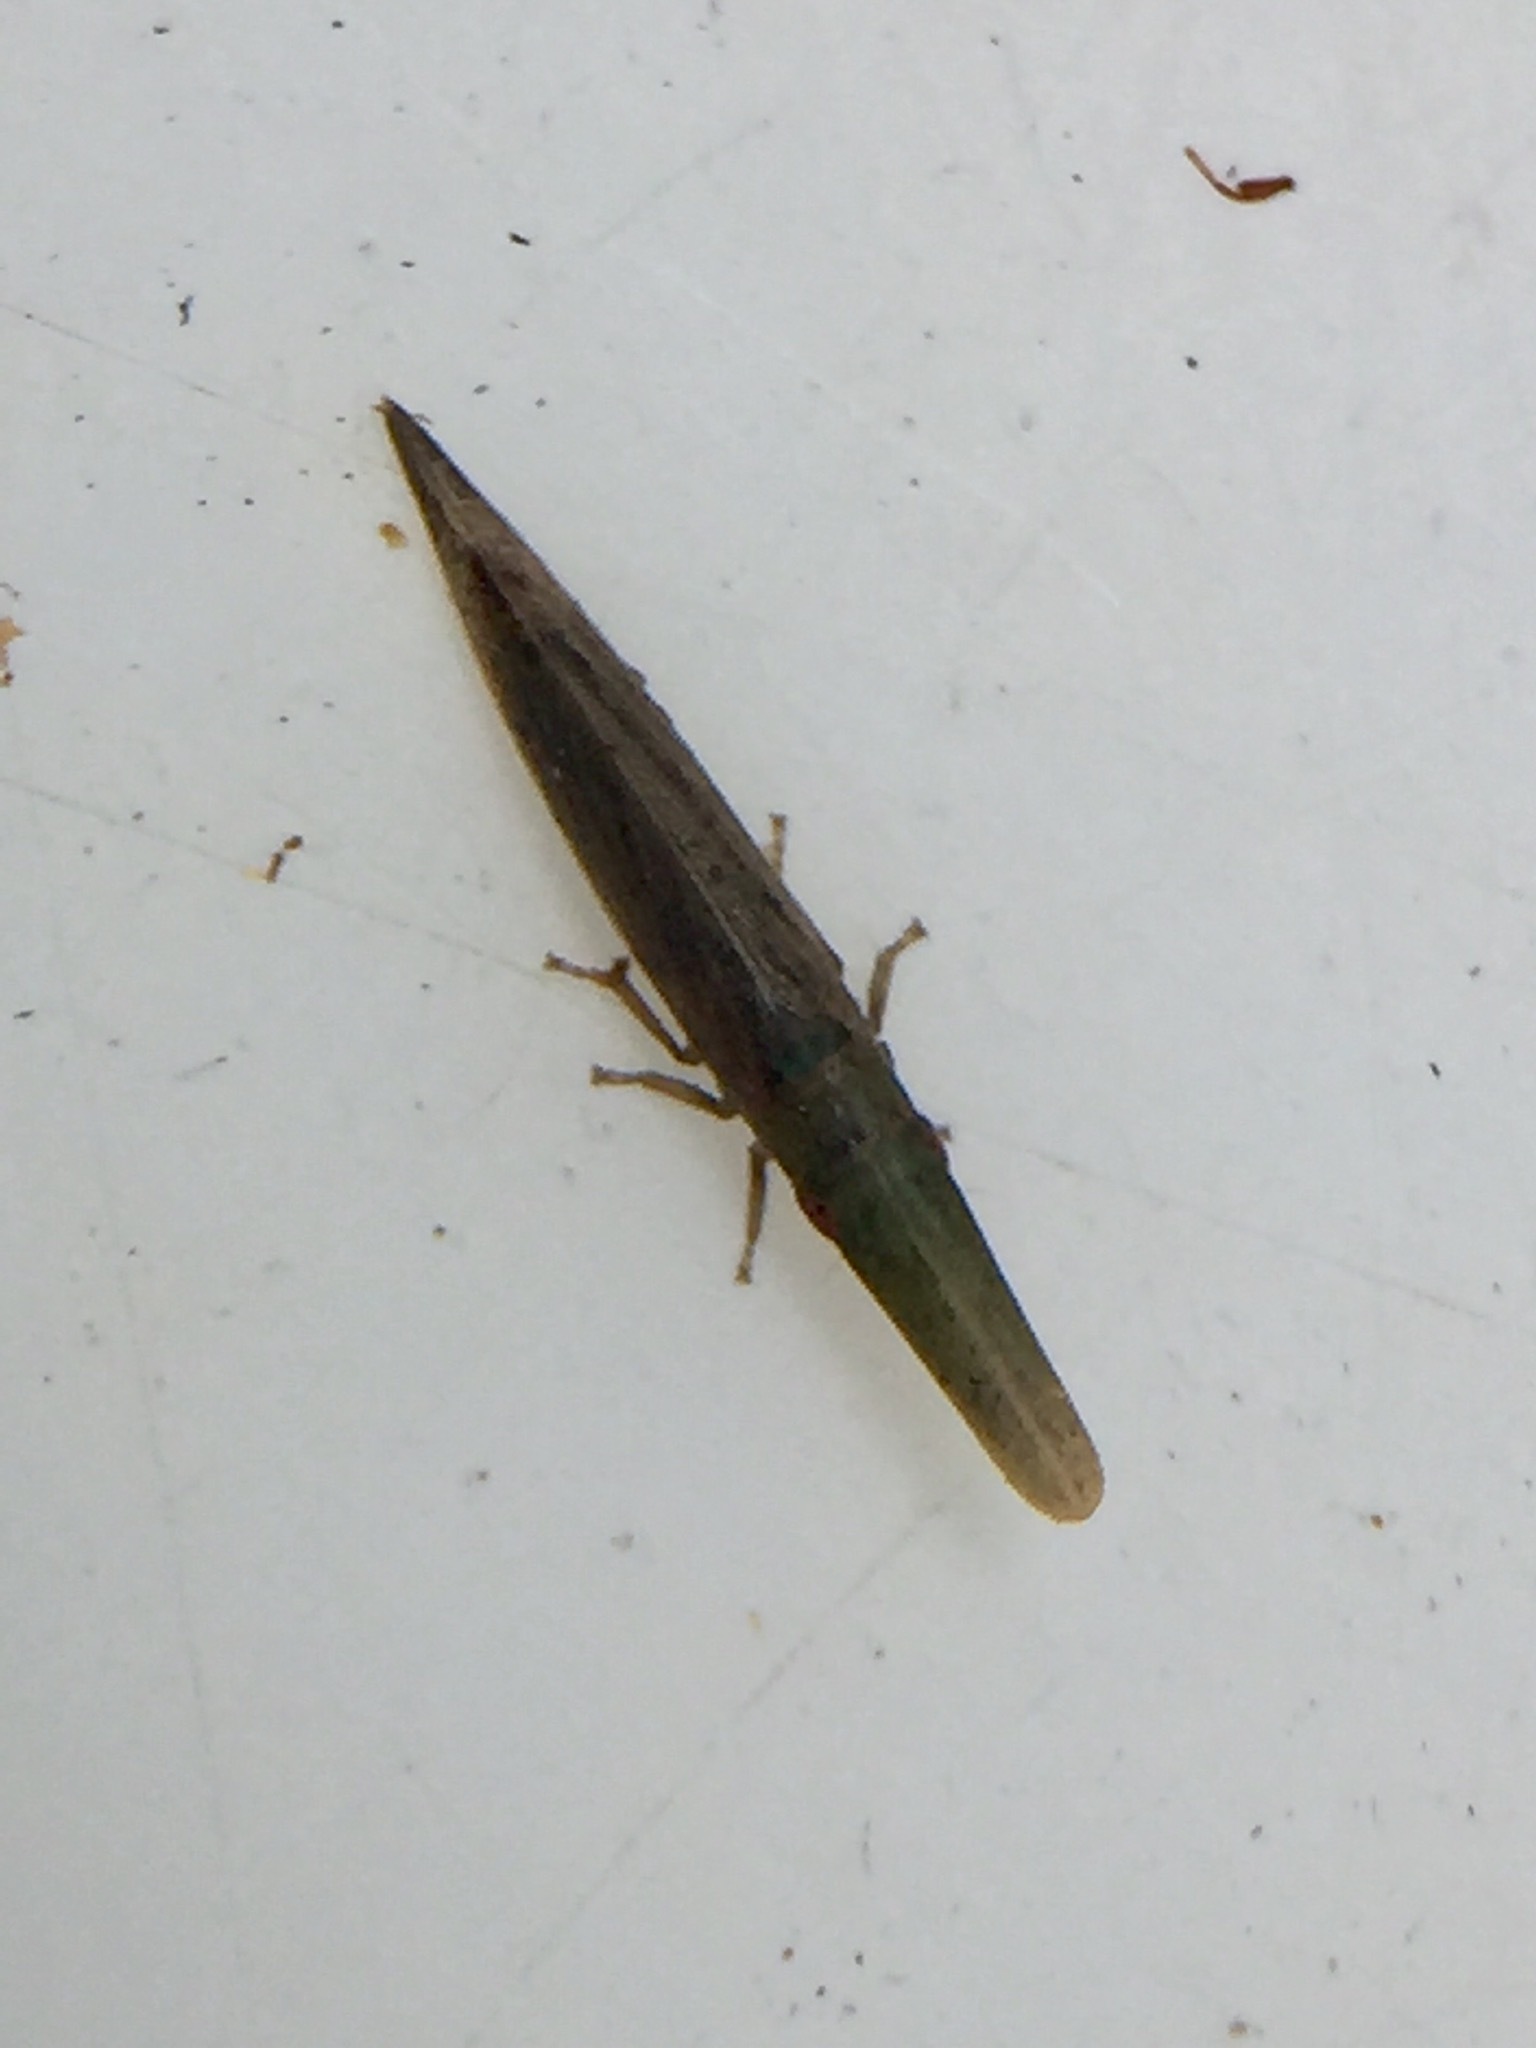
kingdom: Animalia
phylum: Arthropoda
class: Insecta
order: Hemiptera
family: Cicadellidae
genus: Paracephaleus
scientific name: Paracephaleus hudsoni
